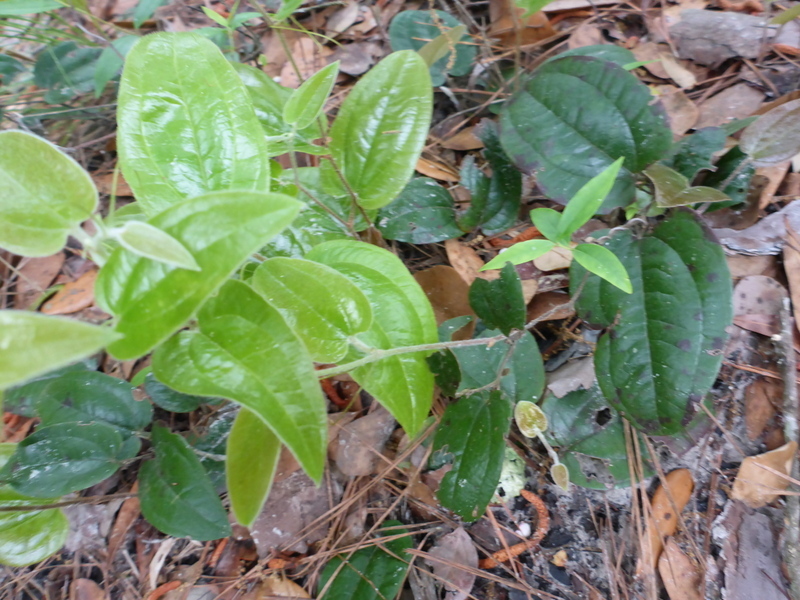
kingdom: Plantae
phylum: Tracheophyta
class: Liliopsida
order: Liliales
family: Smilacaceae
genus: Smilax
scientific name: Smilax pumila
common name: Sarsaparilla-vine
